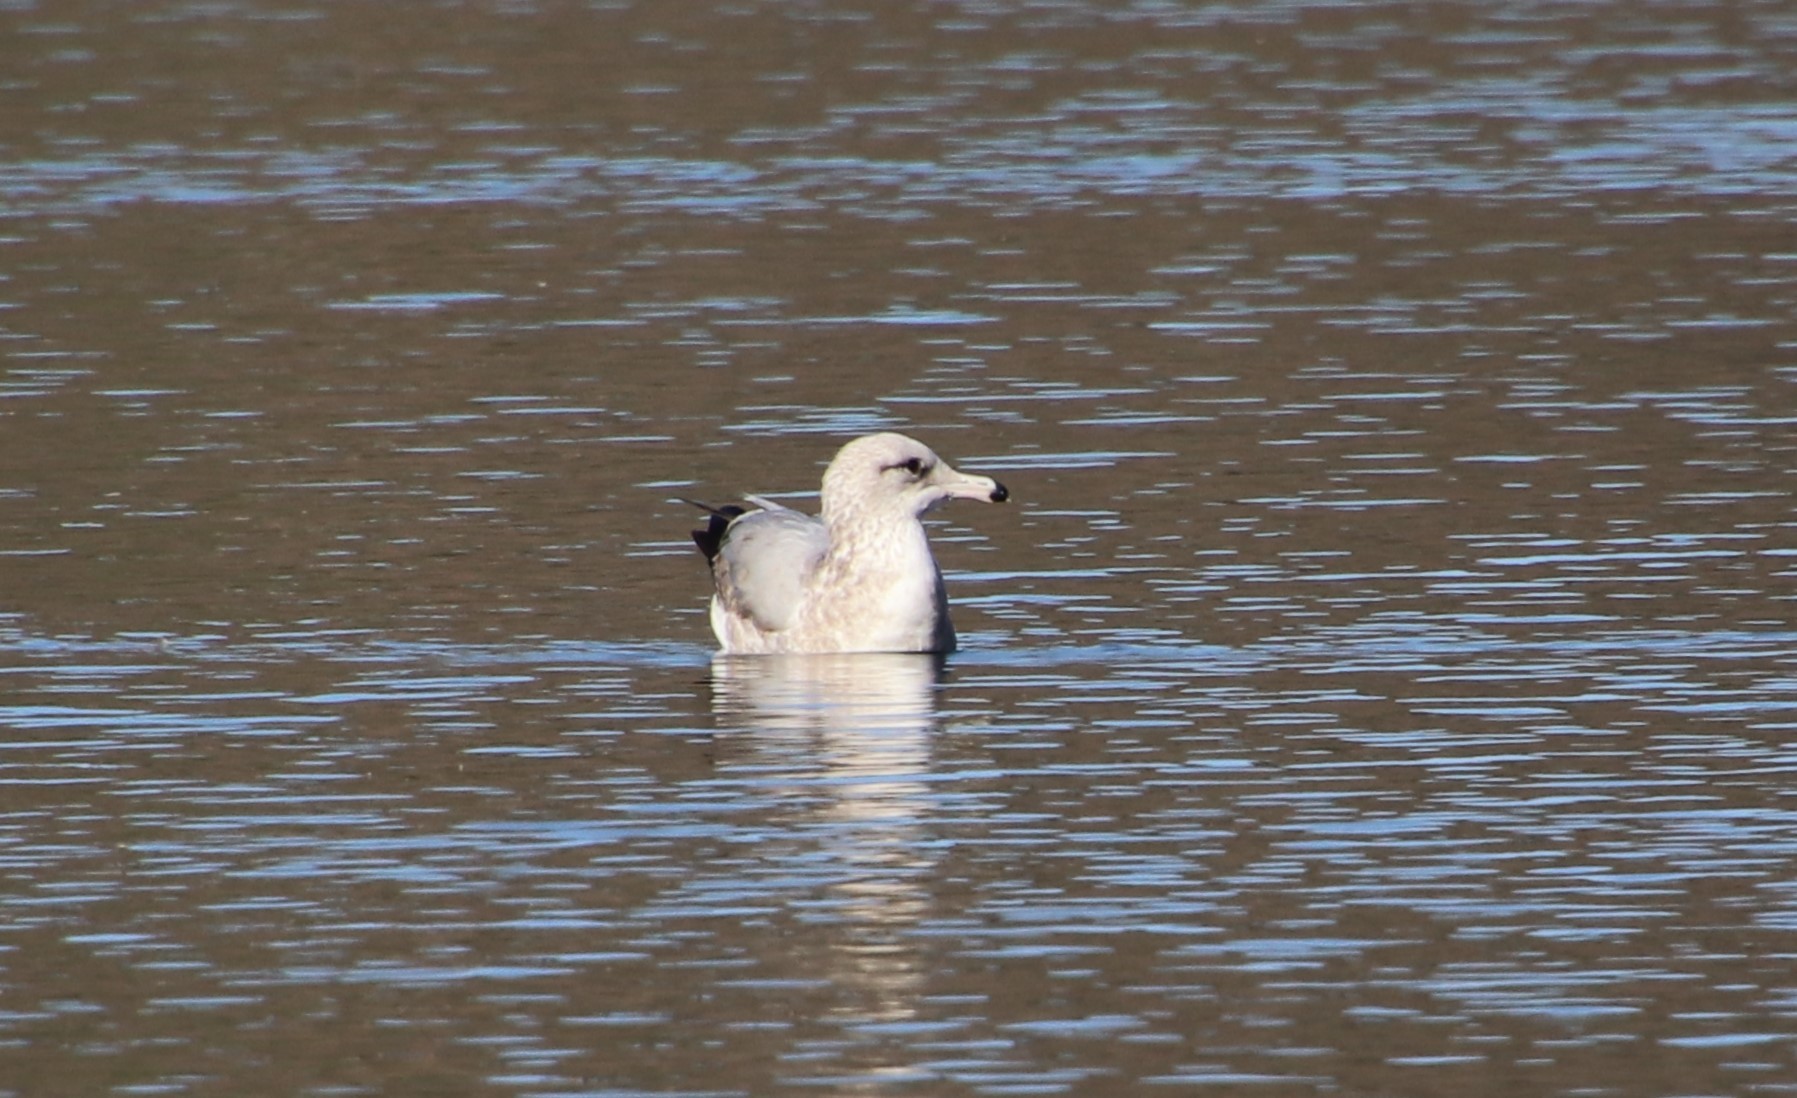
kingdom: Animalia
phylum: Chordata
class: Aves
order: Charadriiformes
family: Laridae
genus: Larus
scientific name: Larus californicus
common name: California gull
